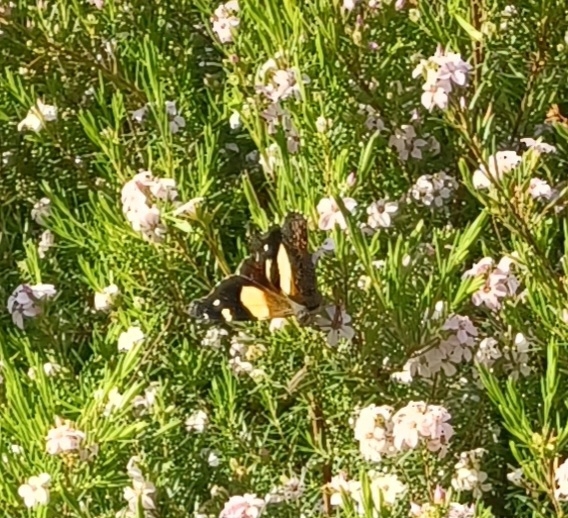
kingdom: Animalia
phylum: Arthropoda
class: Insecta
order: Lepidoptera
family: Nymphalidae
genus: Vanessa
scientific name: Vanessa itea
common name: Yellow admiral
